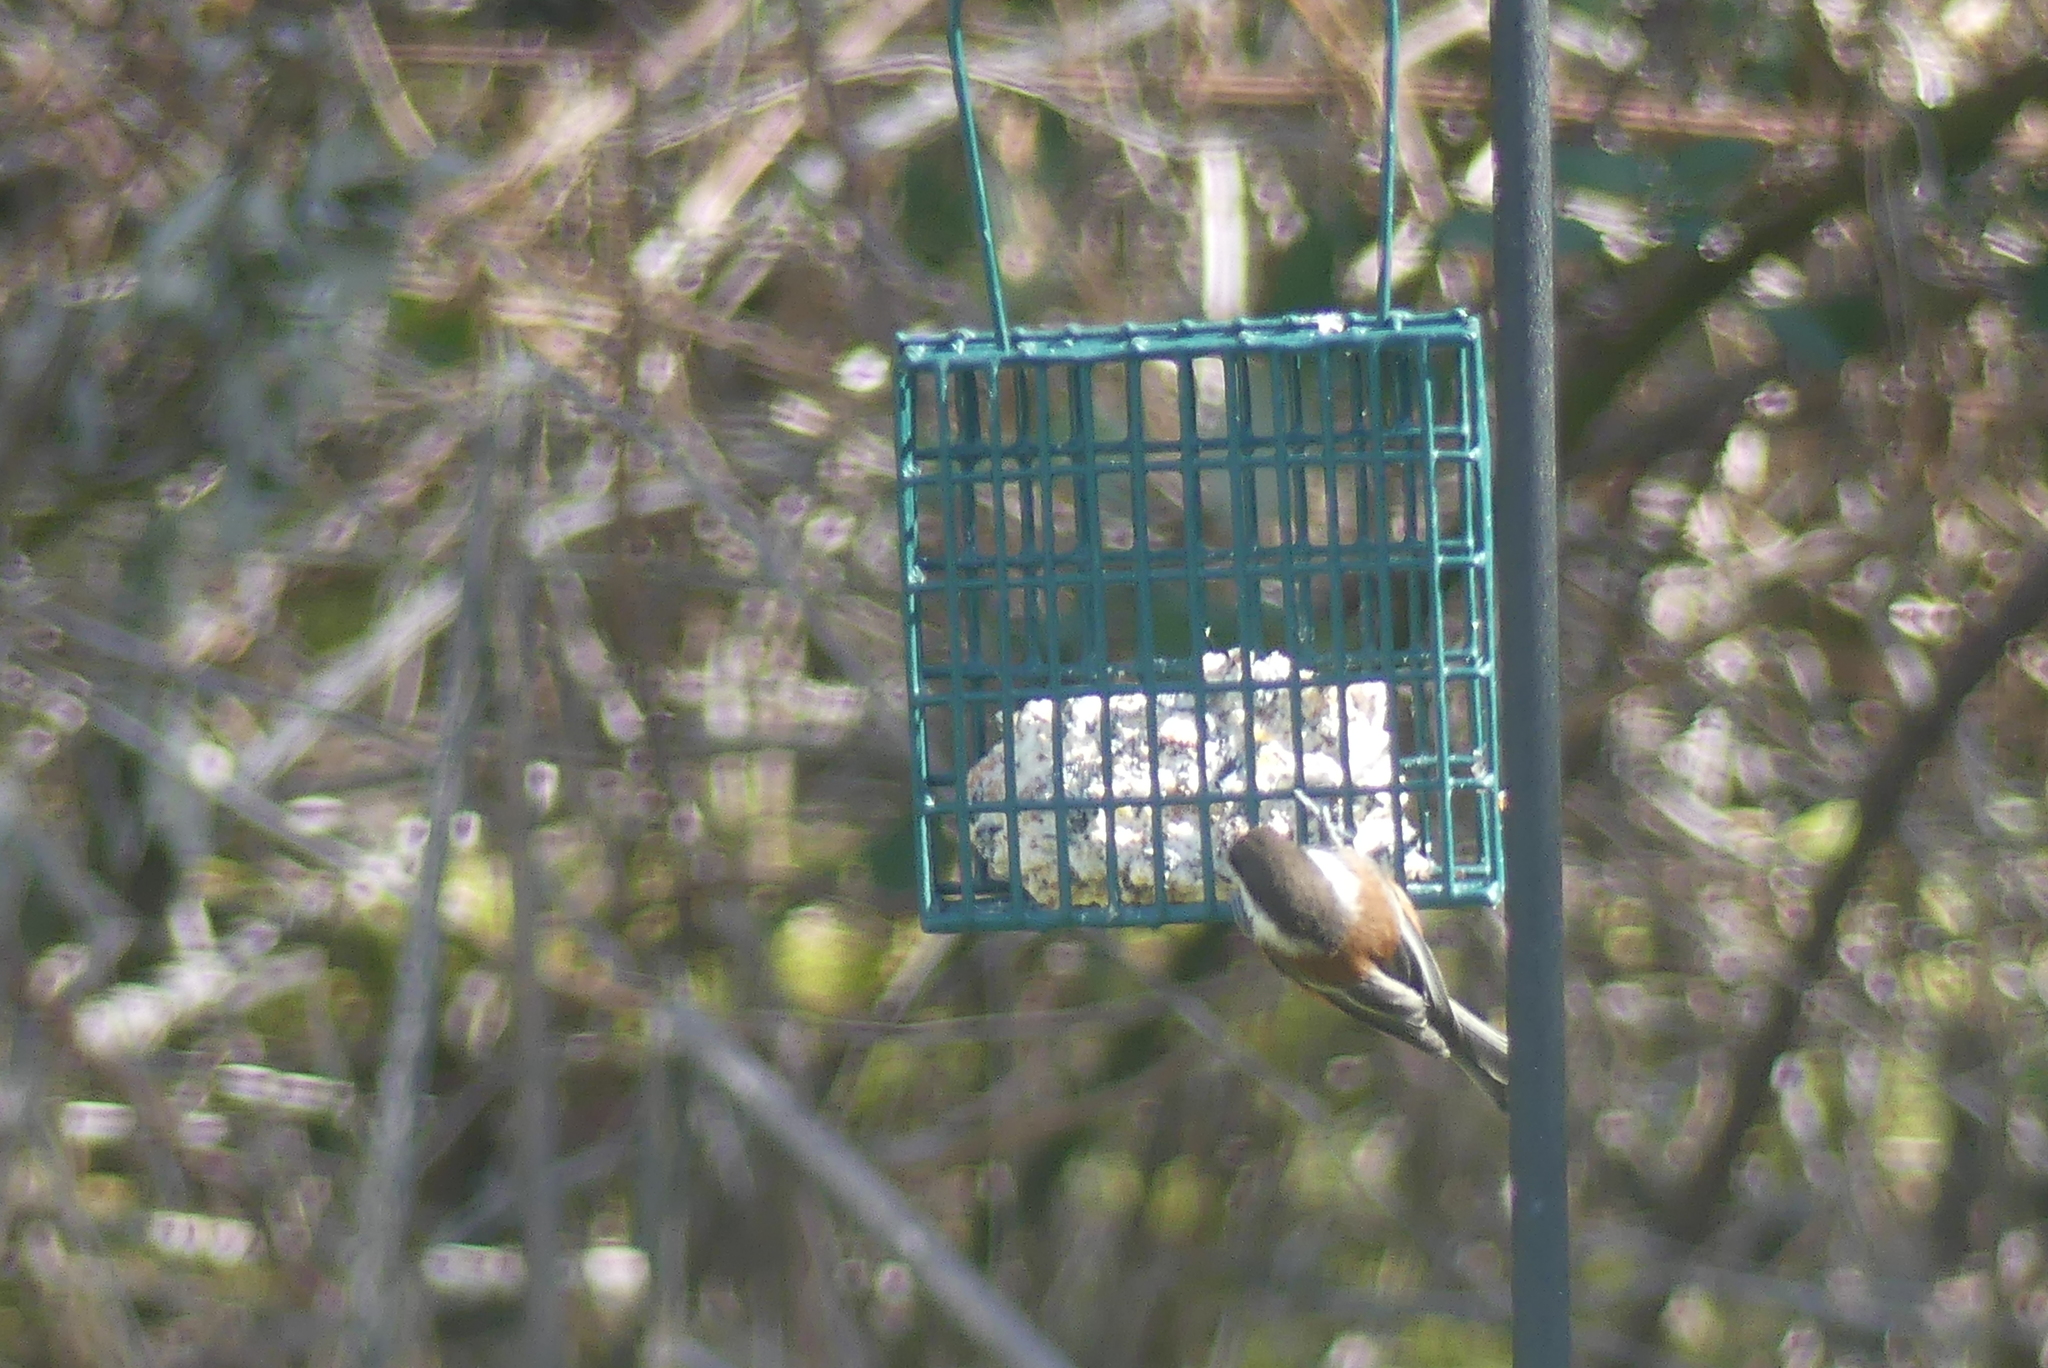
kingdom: Animalia
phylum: Chordata
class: Aves
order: Passeriformes
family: Paridae
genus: Poecile
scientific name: Poecile rufescens
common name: Chestnut-backed chickadee
